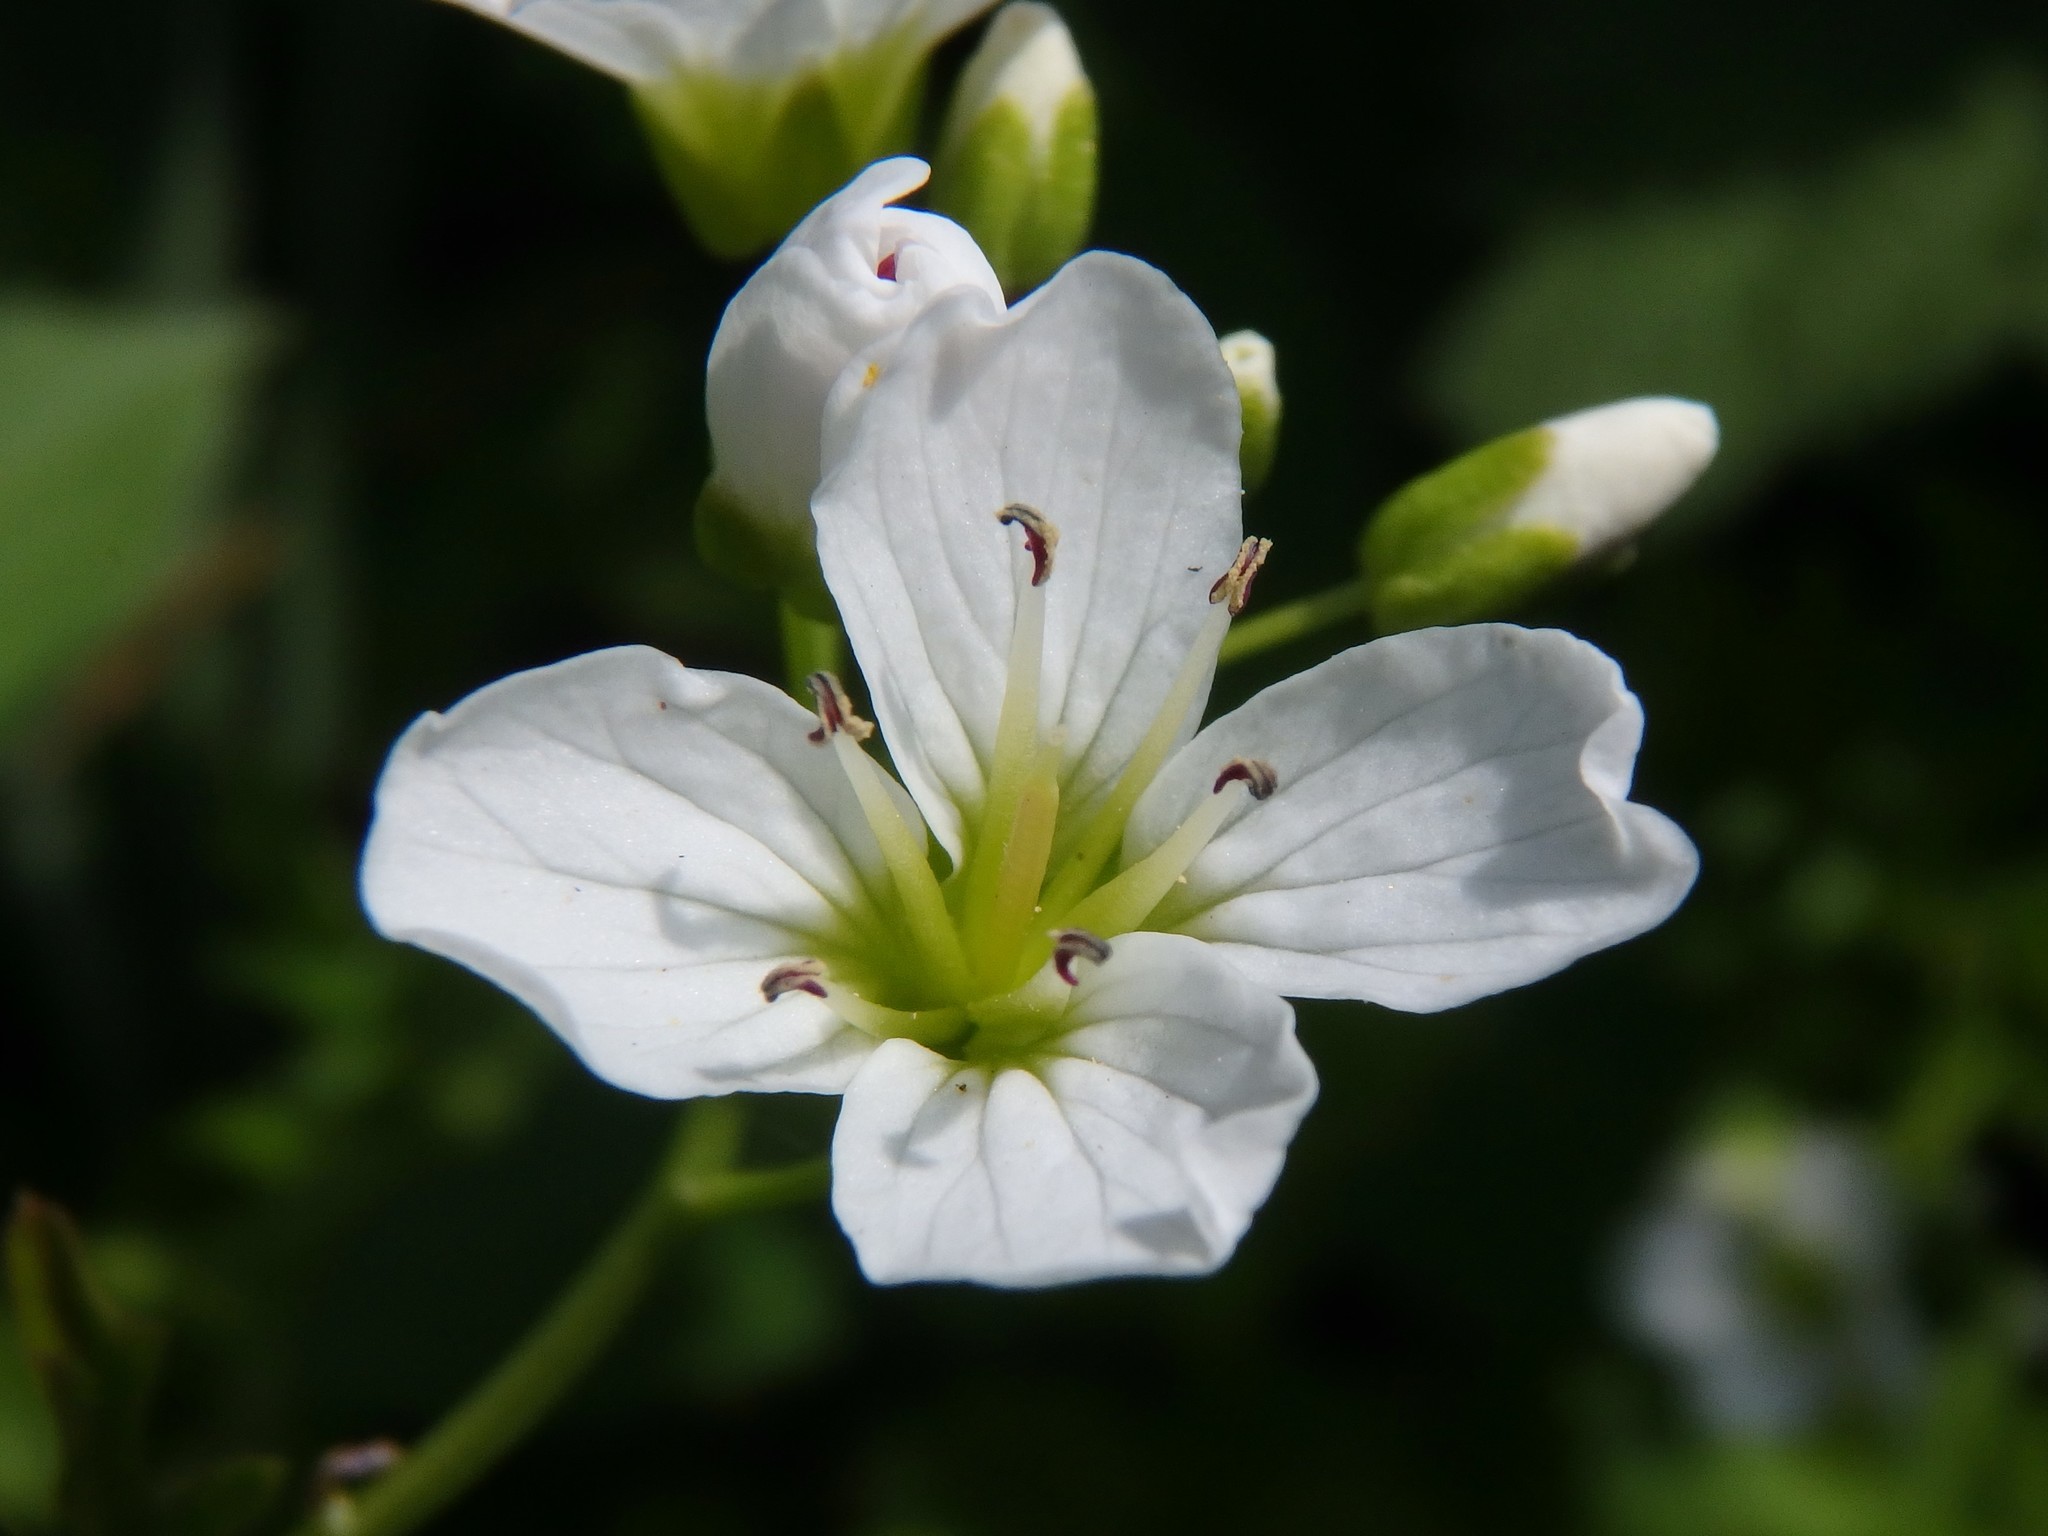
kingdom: Plantae
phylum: Tracheophyta
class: Magnoliopsida
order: Brassicales
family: Brassicaceae
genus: Cardamine
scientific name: Cardamine amara
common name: Large bitter-cress
